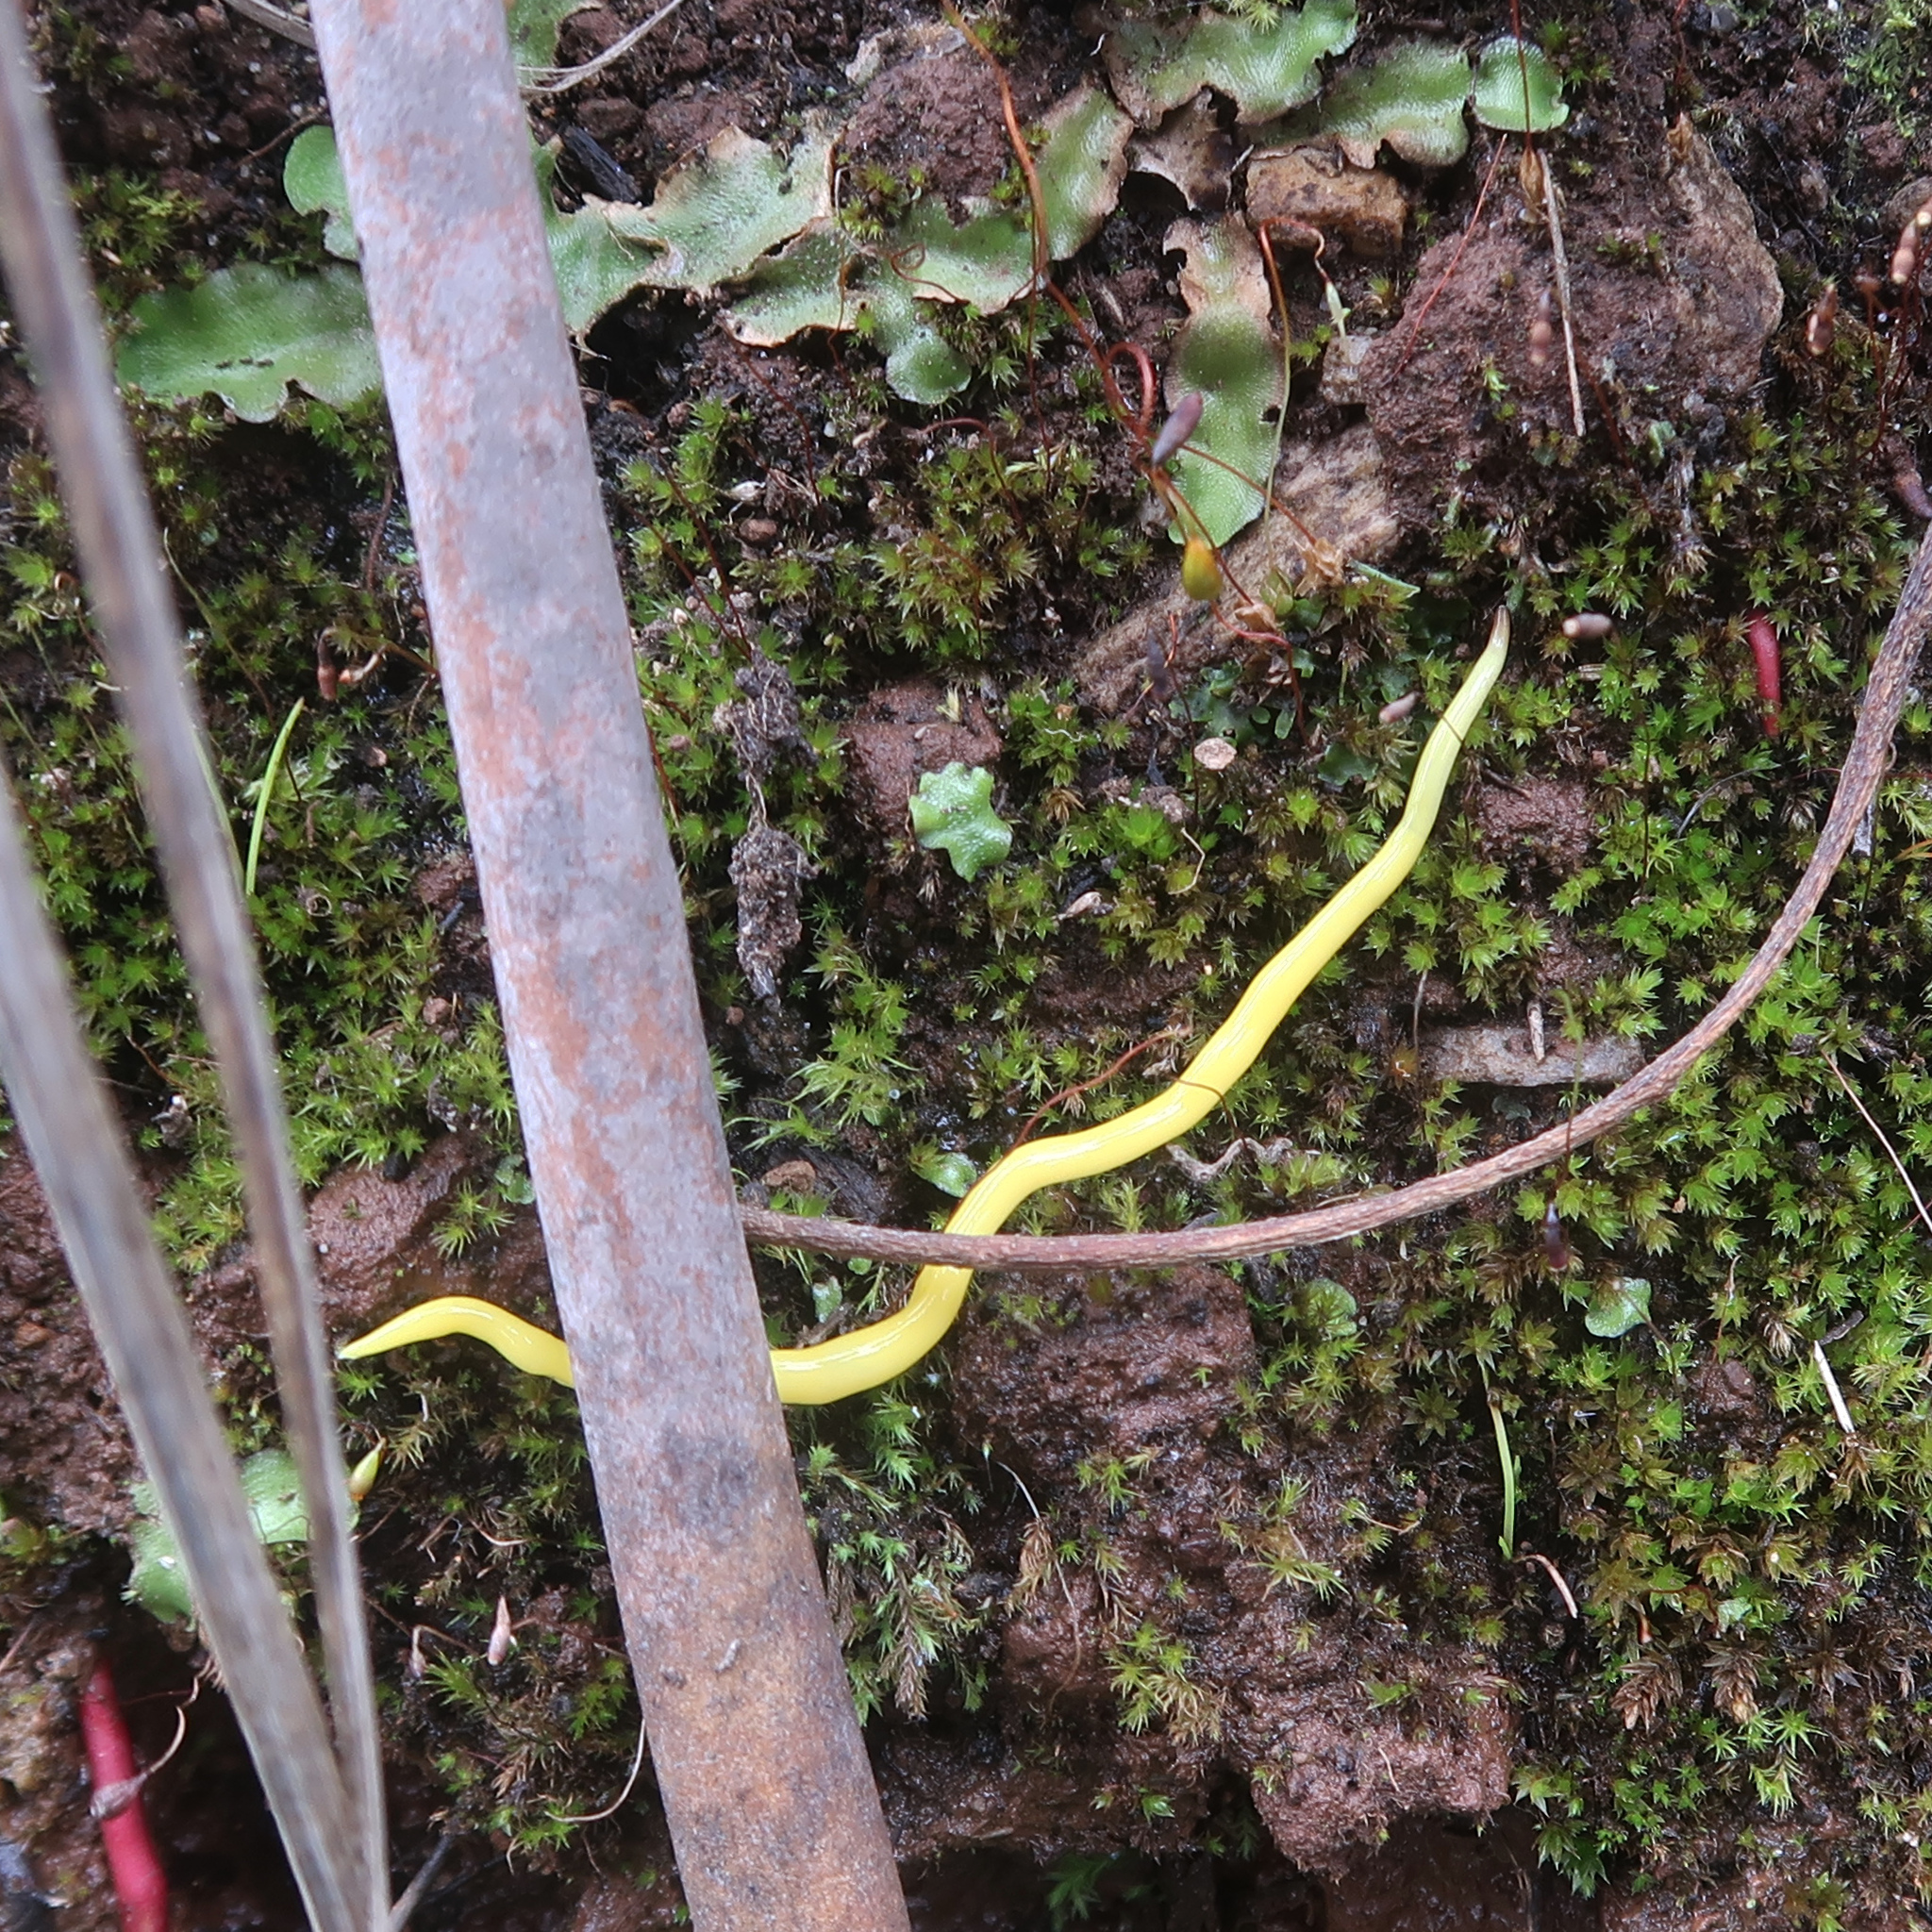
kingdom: Animalia
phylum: Platyhelminthes
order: Tricladida
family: Geoplanidae
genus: Fletchamia
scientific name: Fletchamia sugdeni
